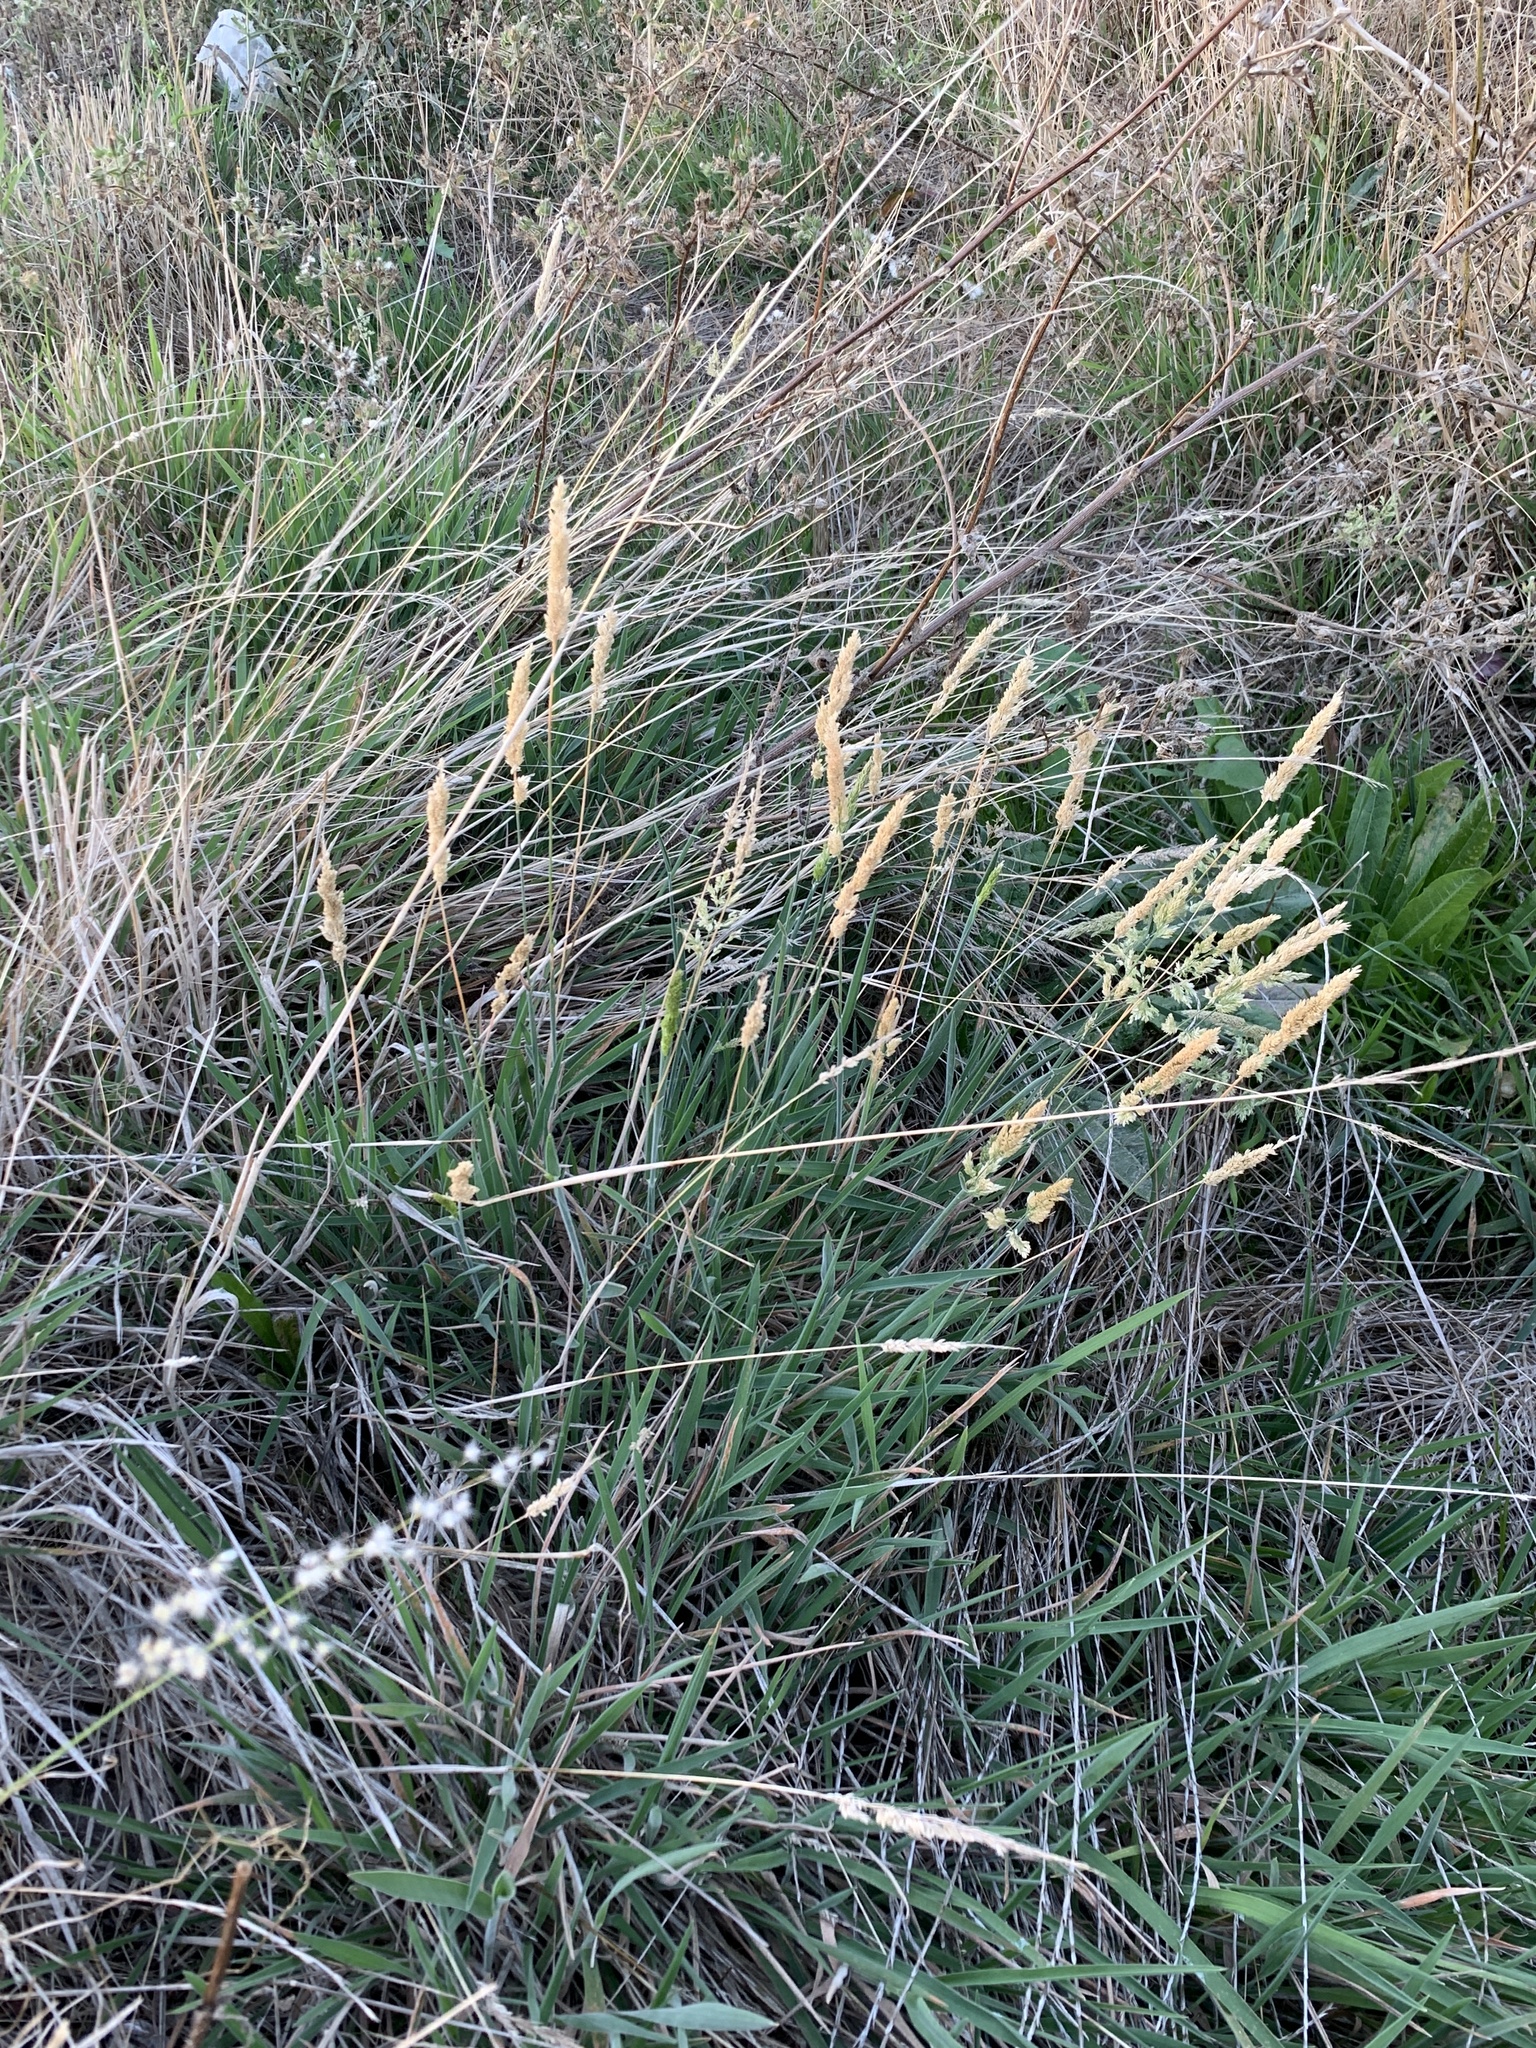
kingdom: Plantae
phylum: Tracheophyta
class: Liliopsida
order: Poales
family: Poaceae
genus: Holcus
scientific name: Holcus lanatus
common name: Yorkshire-fog
